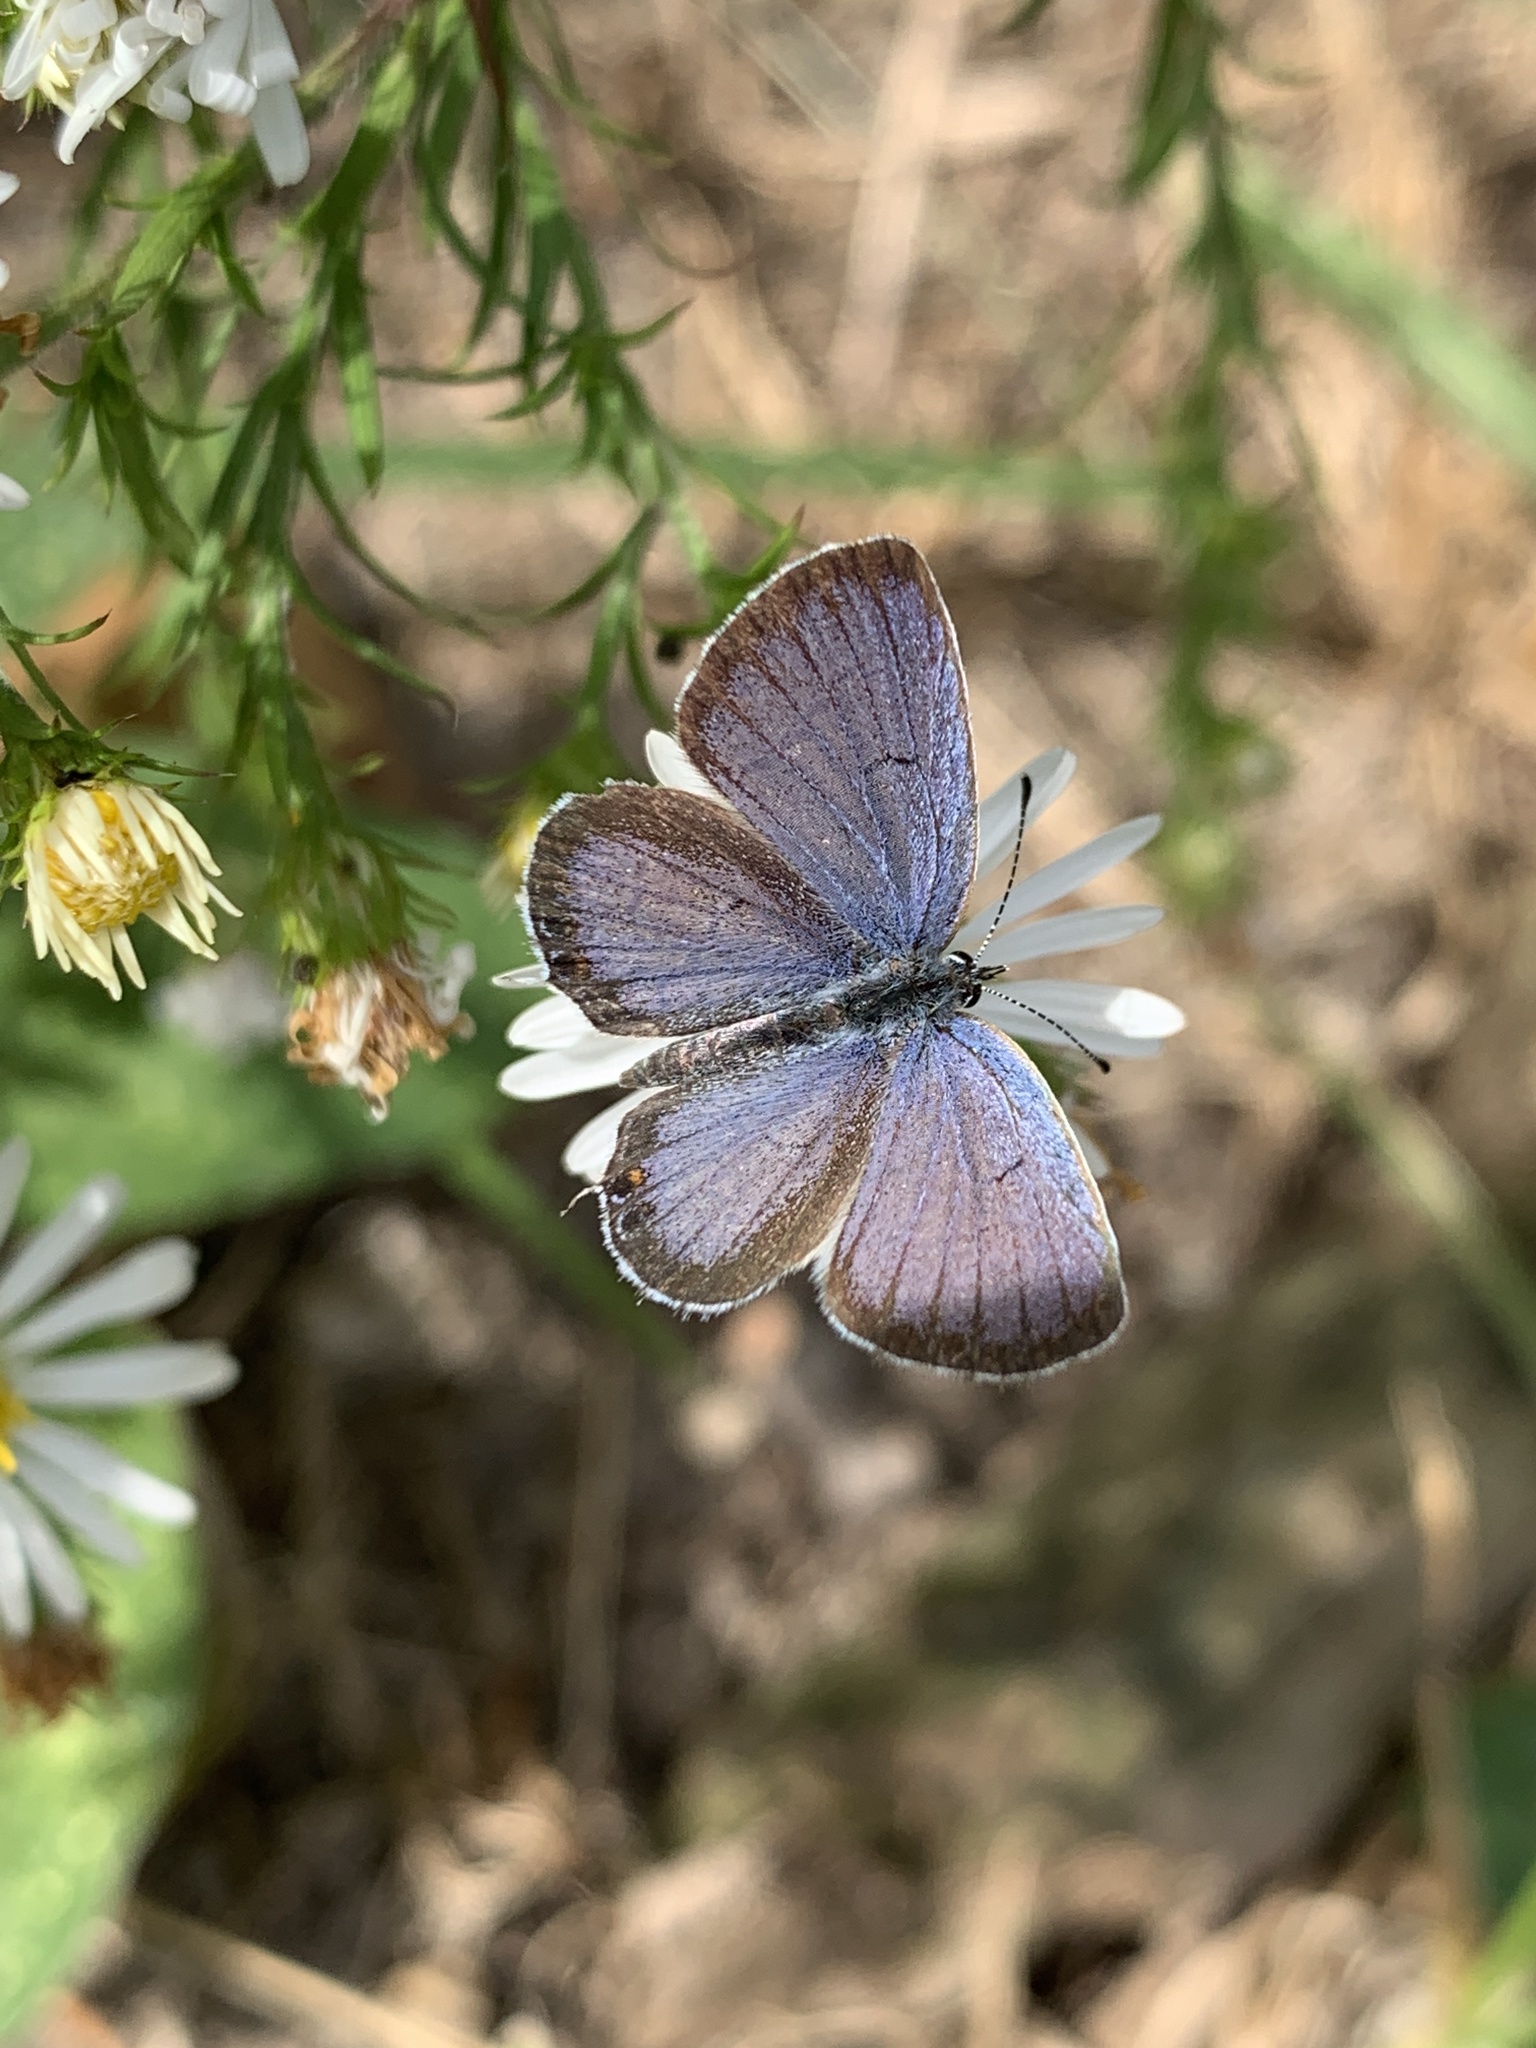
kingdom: Animalia
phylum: Arthropoda
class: Insecta
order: Lepidoptera
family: Lycaenidae
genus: Elkalyce
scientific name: Elkalyce comyntas
